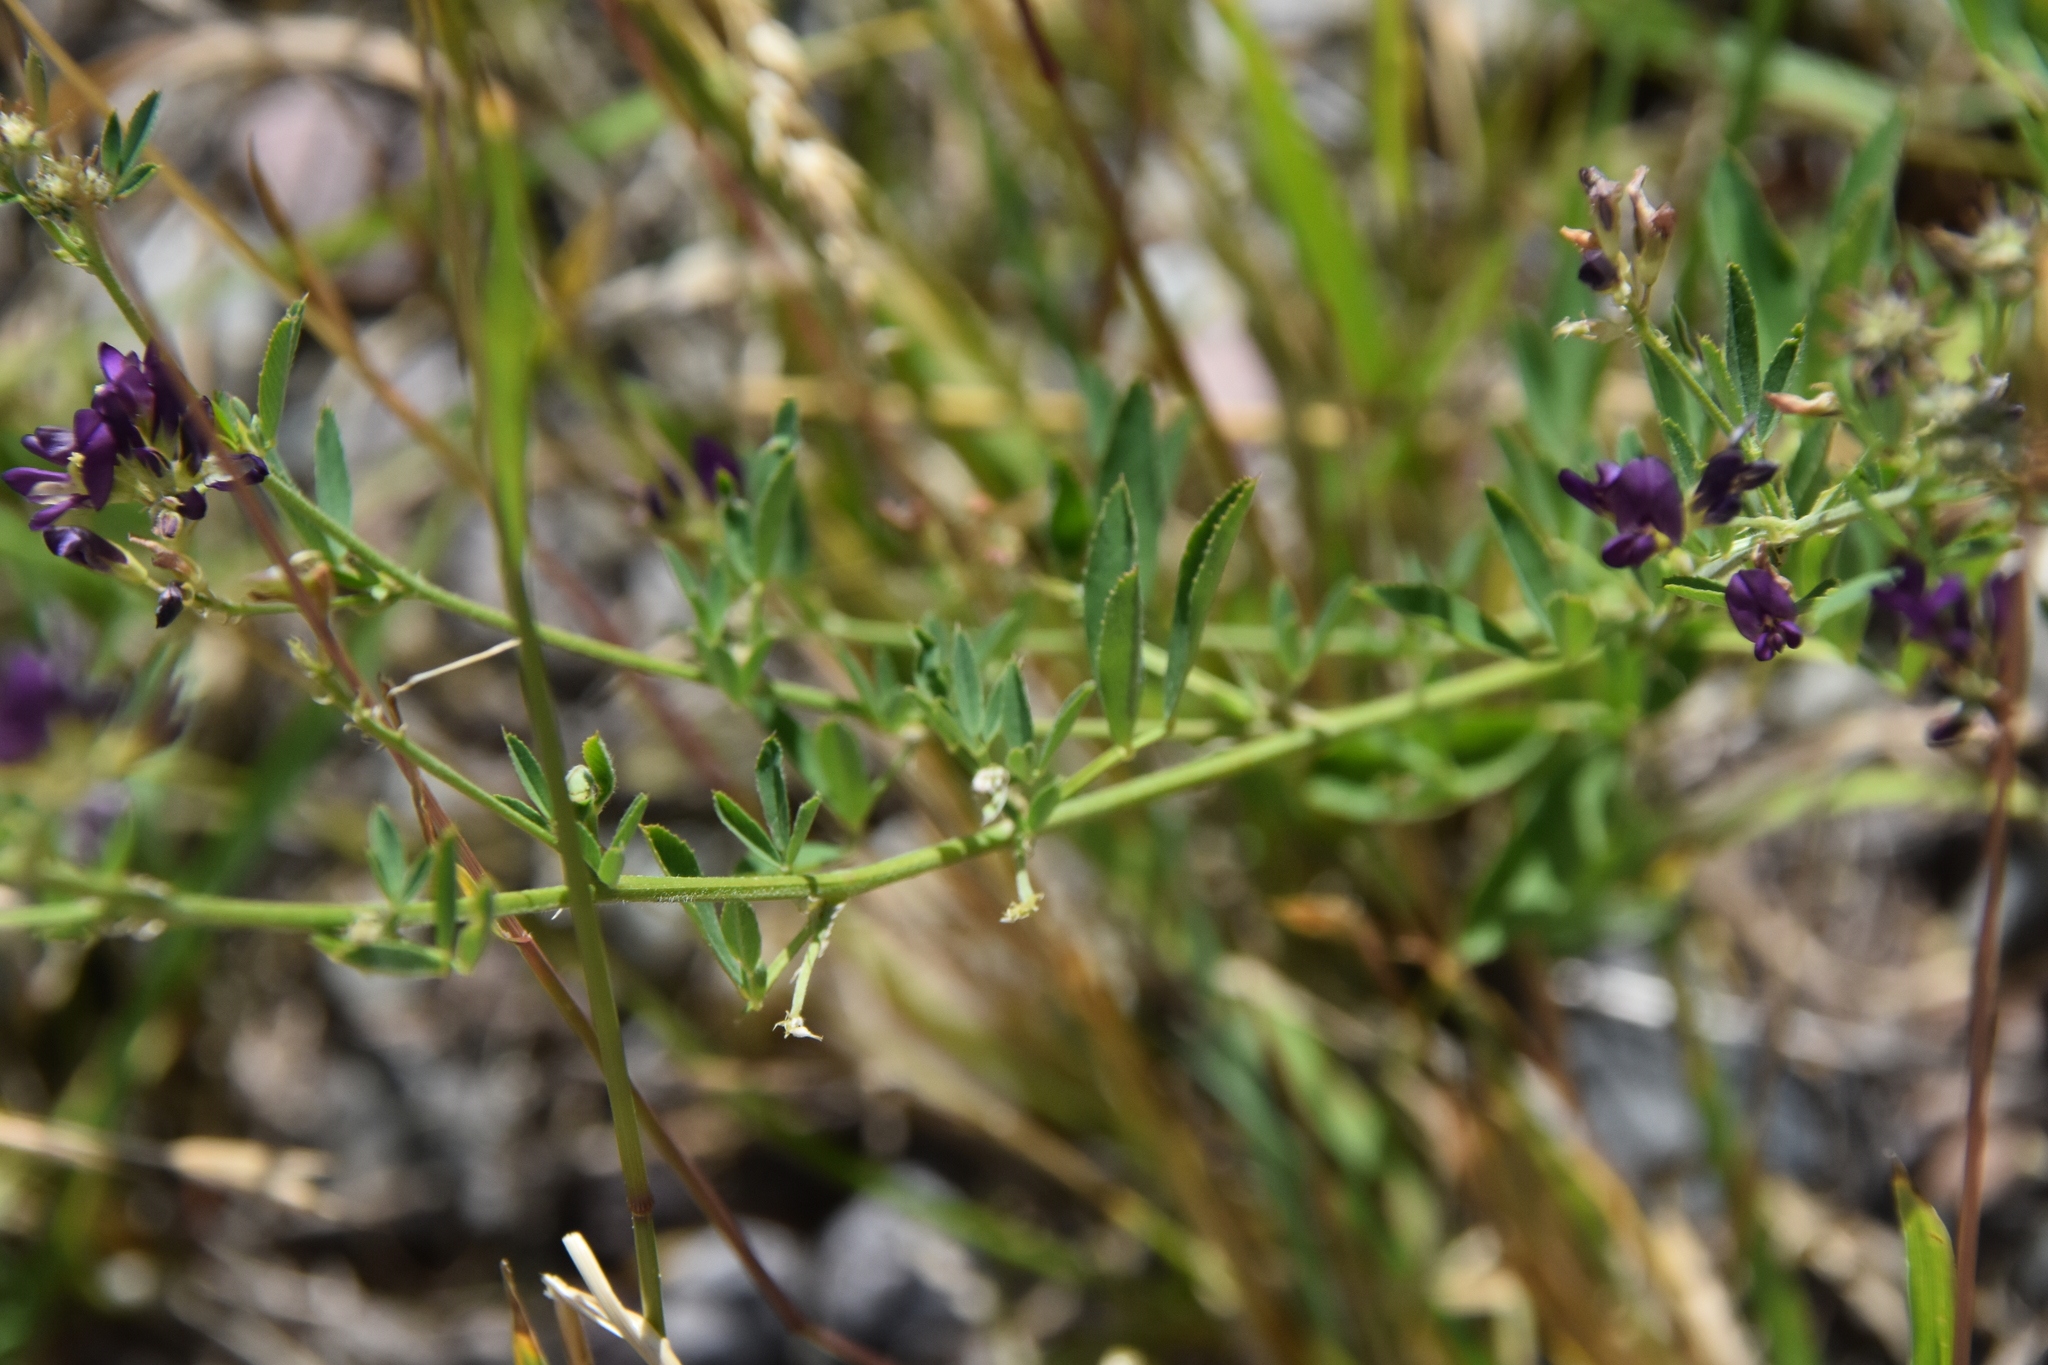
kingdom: Plantae
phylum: Tracheophyta
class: Magnoliopsida
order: Fabales
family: Fabaceae
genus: Medicago
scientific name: Medicago sativa
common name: Alfalfa
